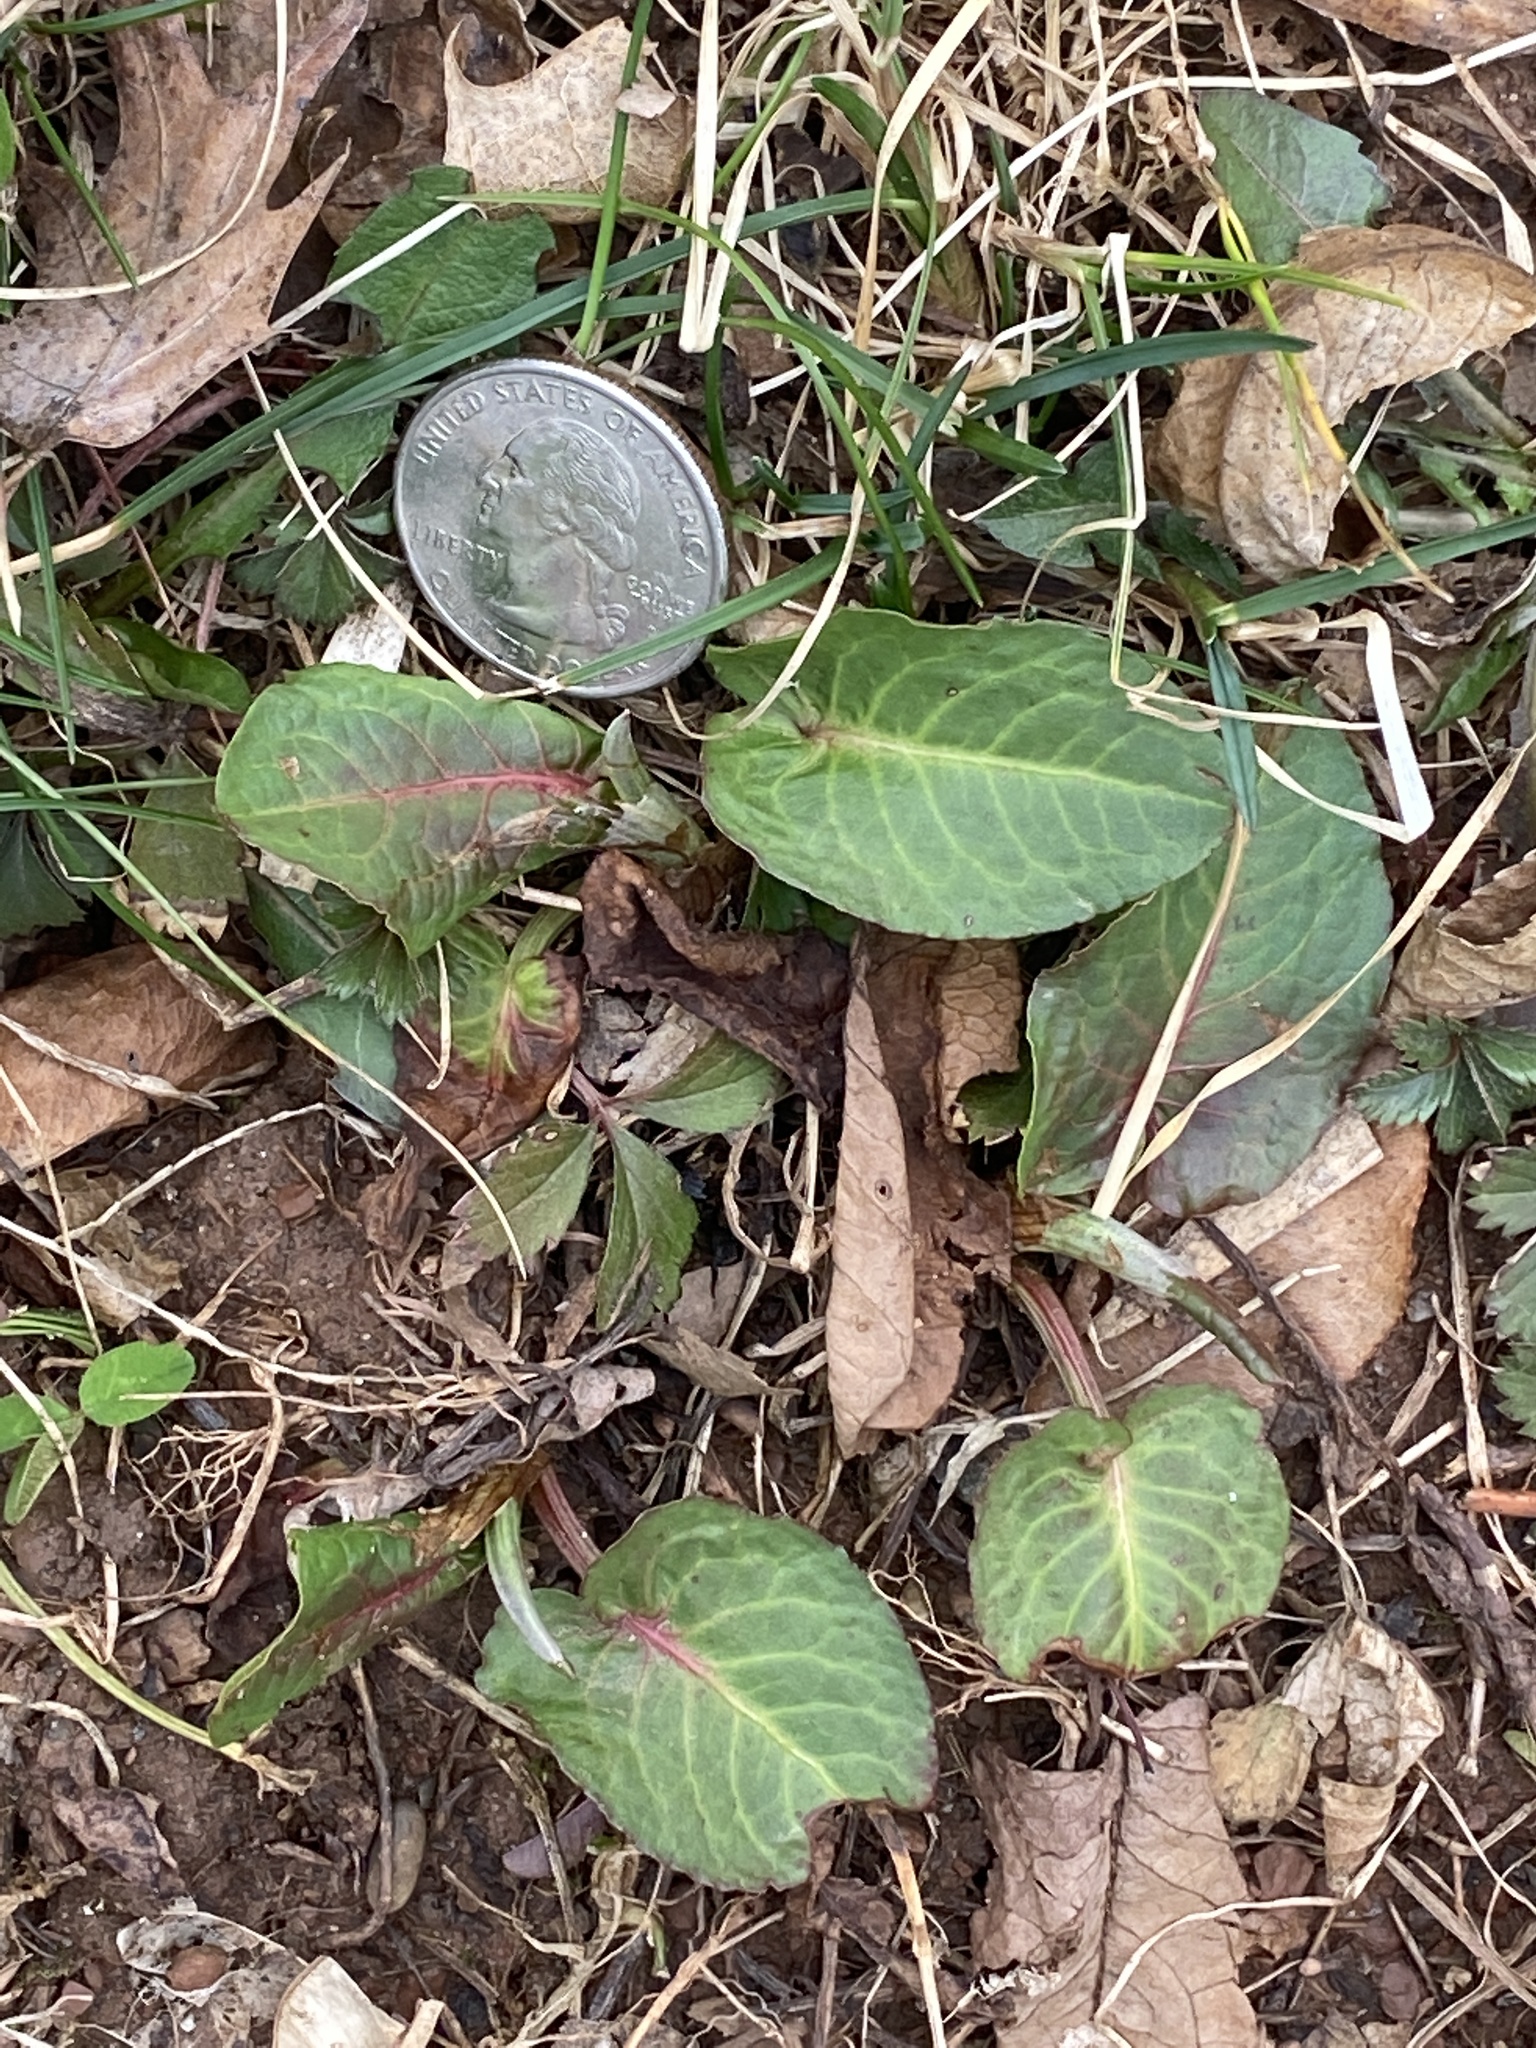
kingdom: Plantae
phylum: Tracheophyta
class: Magnoliopsida
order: Caryophyllales
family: Polygonaceae
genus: Rumex
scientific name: Rumex obtusifolius
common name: Bitter dock
